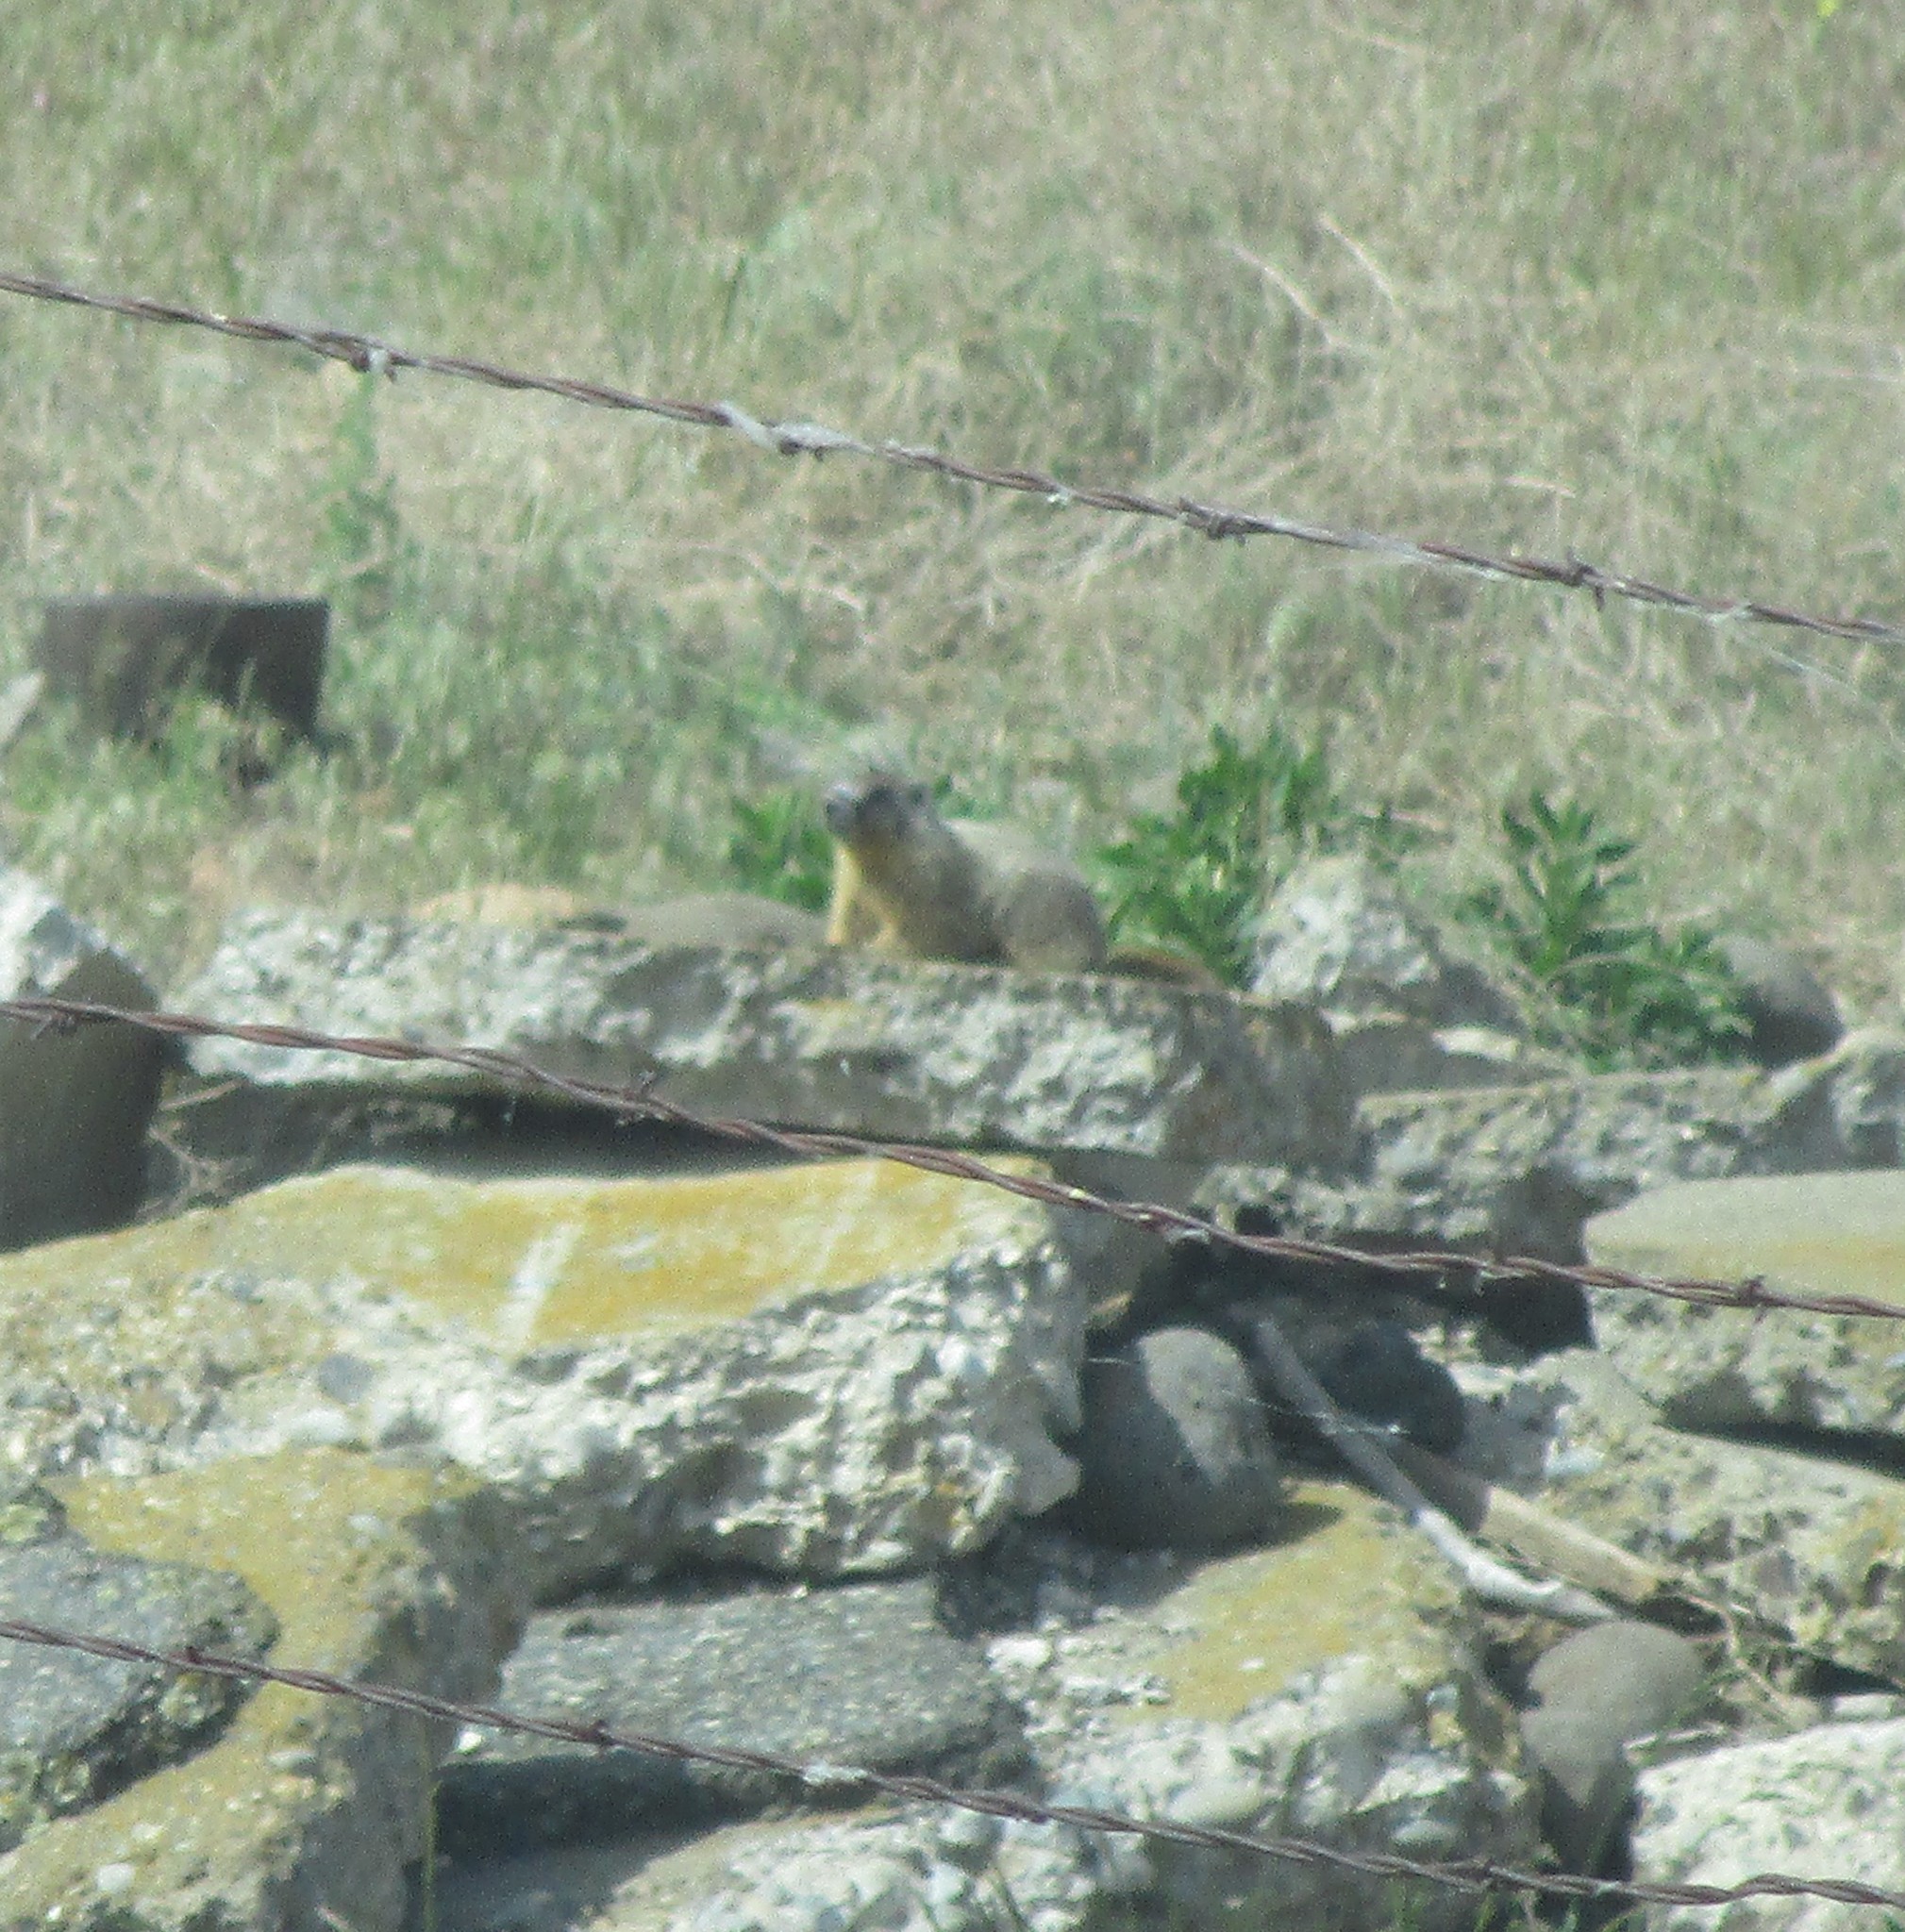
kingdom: Animalia
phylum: Chordata
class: Mammalia
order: Rodentia
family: Sciuridae
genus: Marmota
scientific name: Marmota flaviventris
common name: Yellow-bellied marmot
